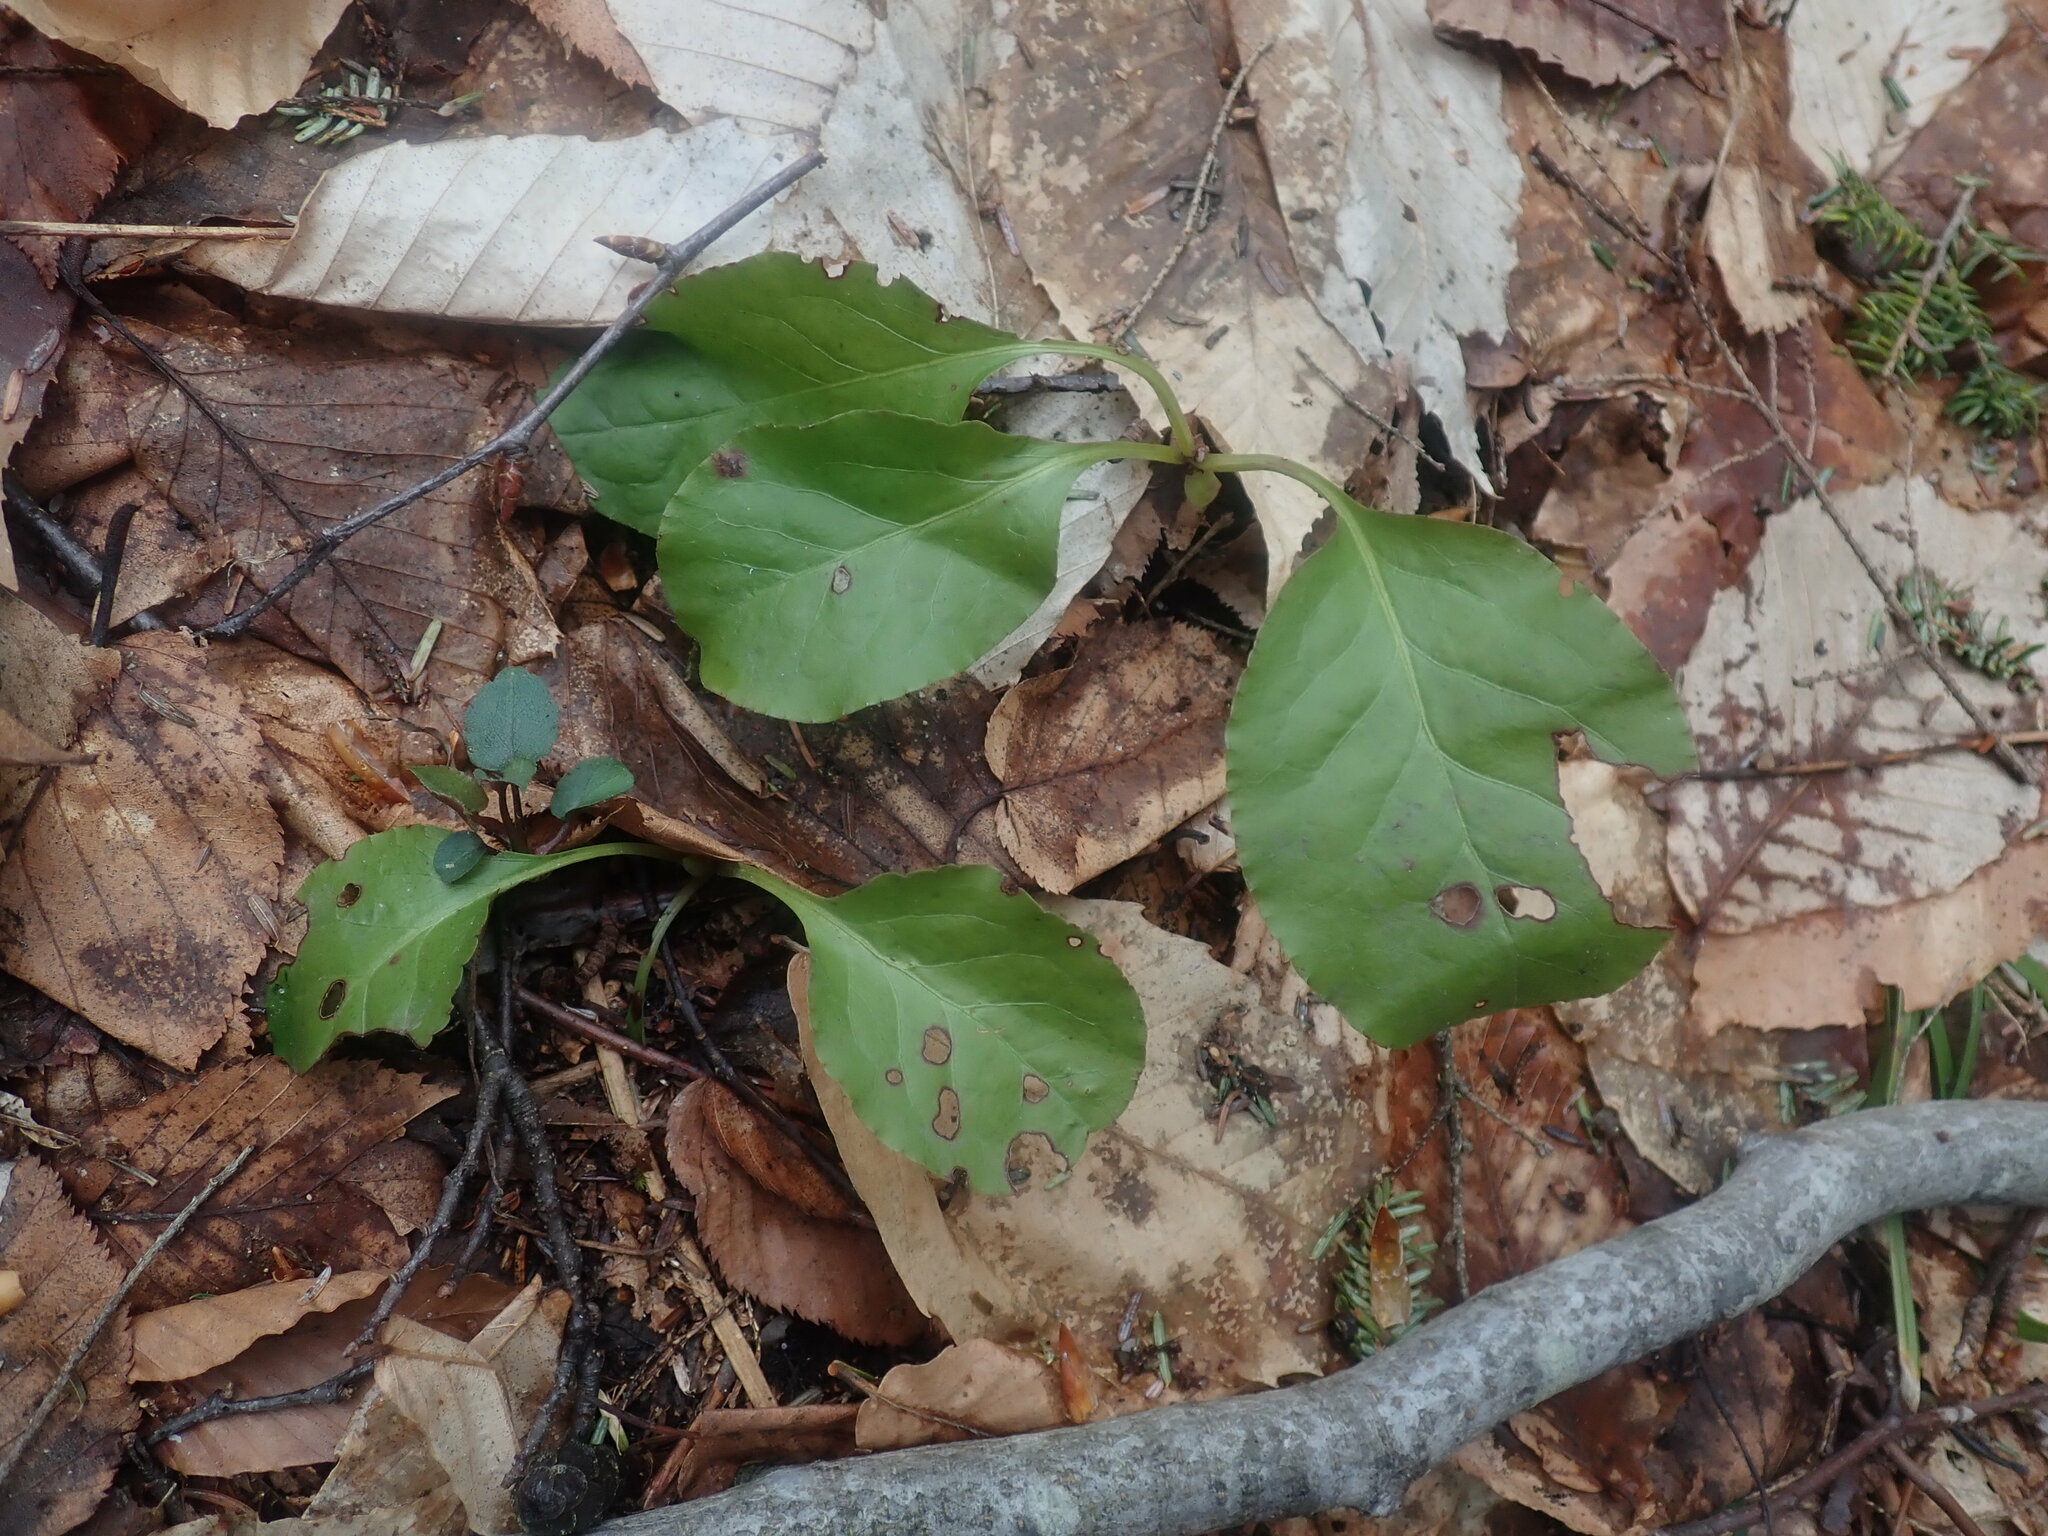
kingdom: Plantae
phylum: Tracheophyta
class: Magnoliopsida
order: Ericales
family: Ericaceae
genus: Pyrola
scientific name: Pyrola elliptica
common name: Shinleaf
